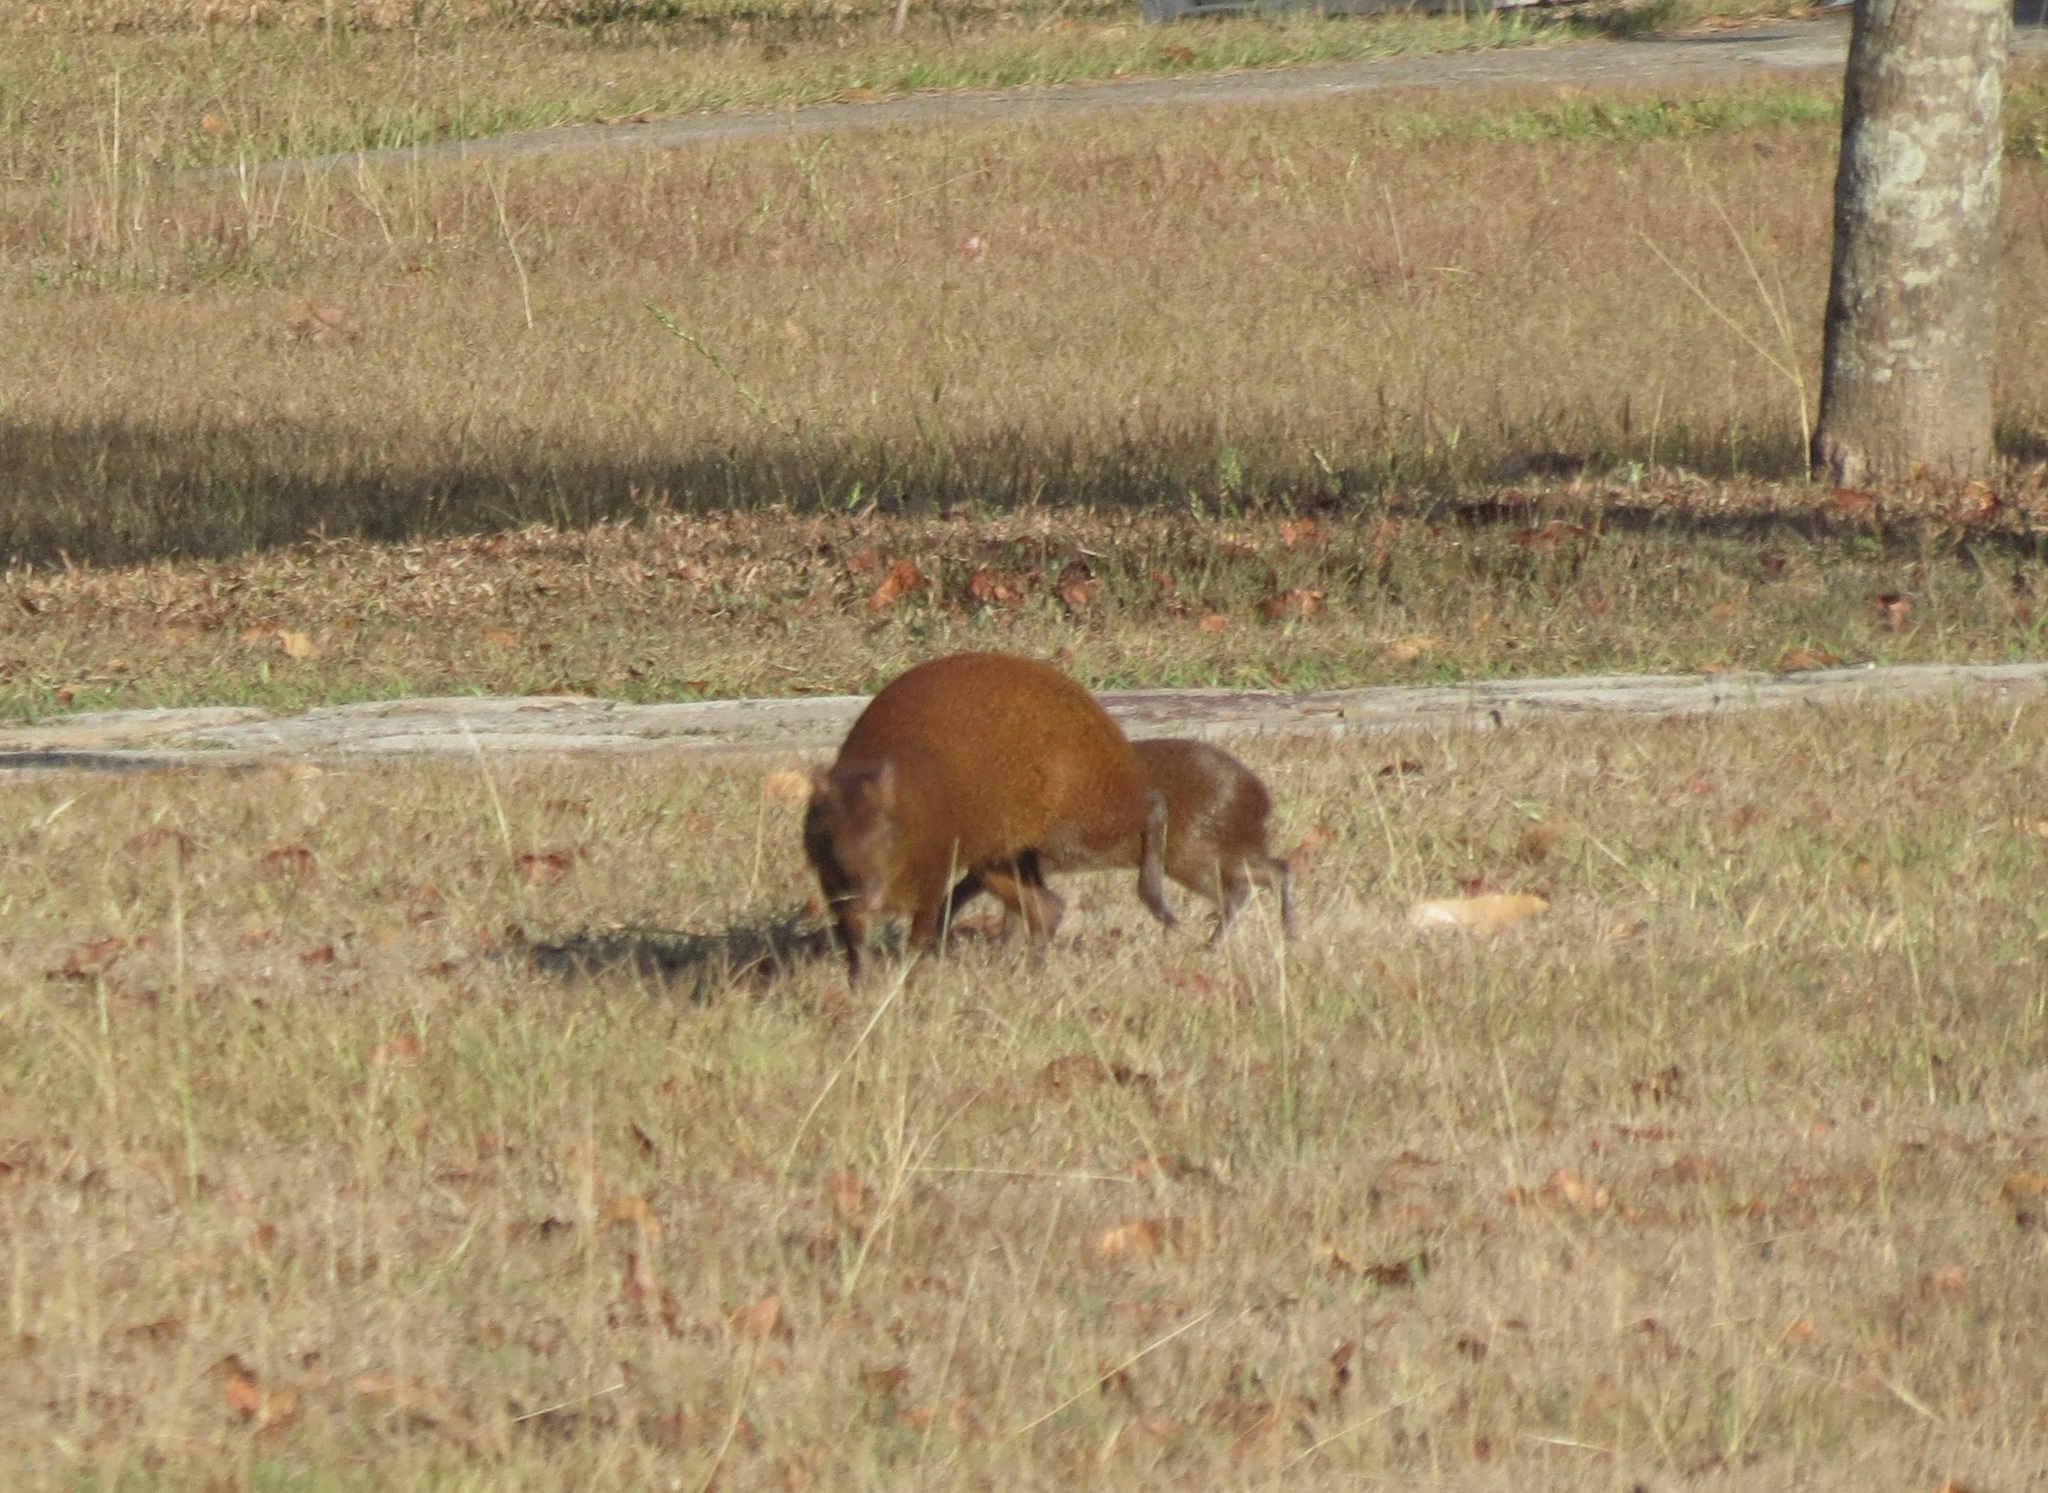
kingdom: Animalia
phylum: Chordata
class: Mammalia
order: Rodentia
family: Dasyproctidae
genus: Dasyprocta
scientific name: Dasyprocta punctata
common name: Central american agouti
